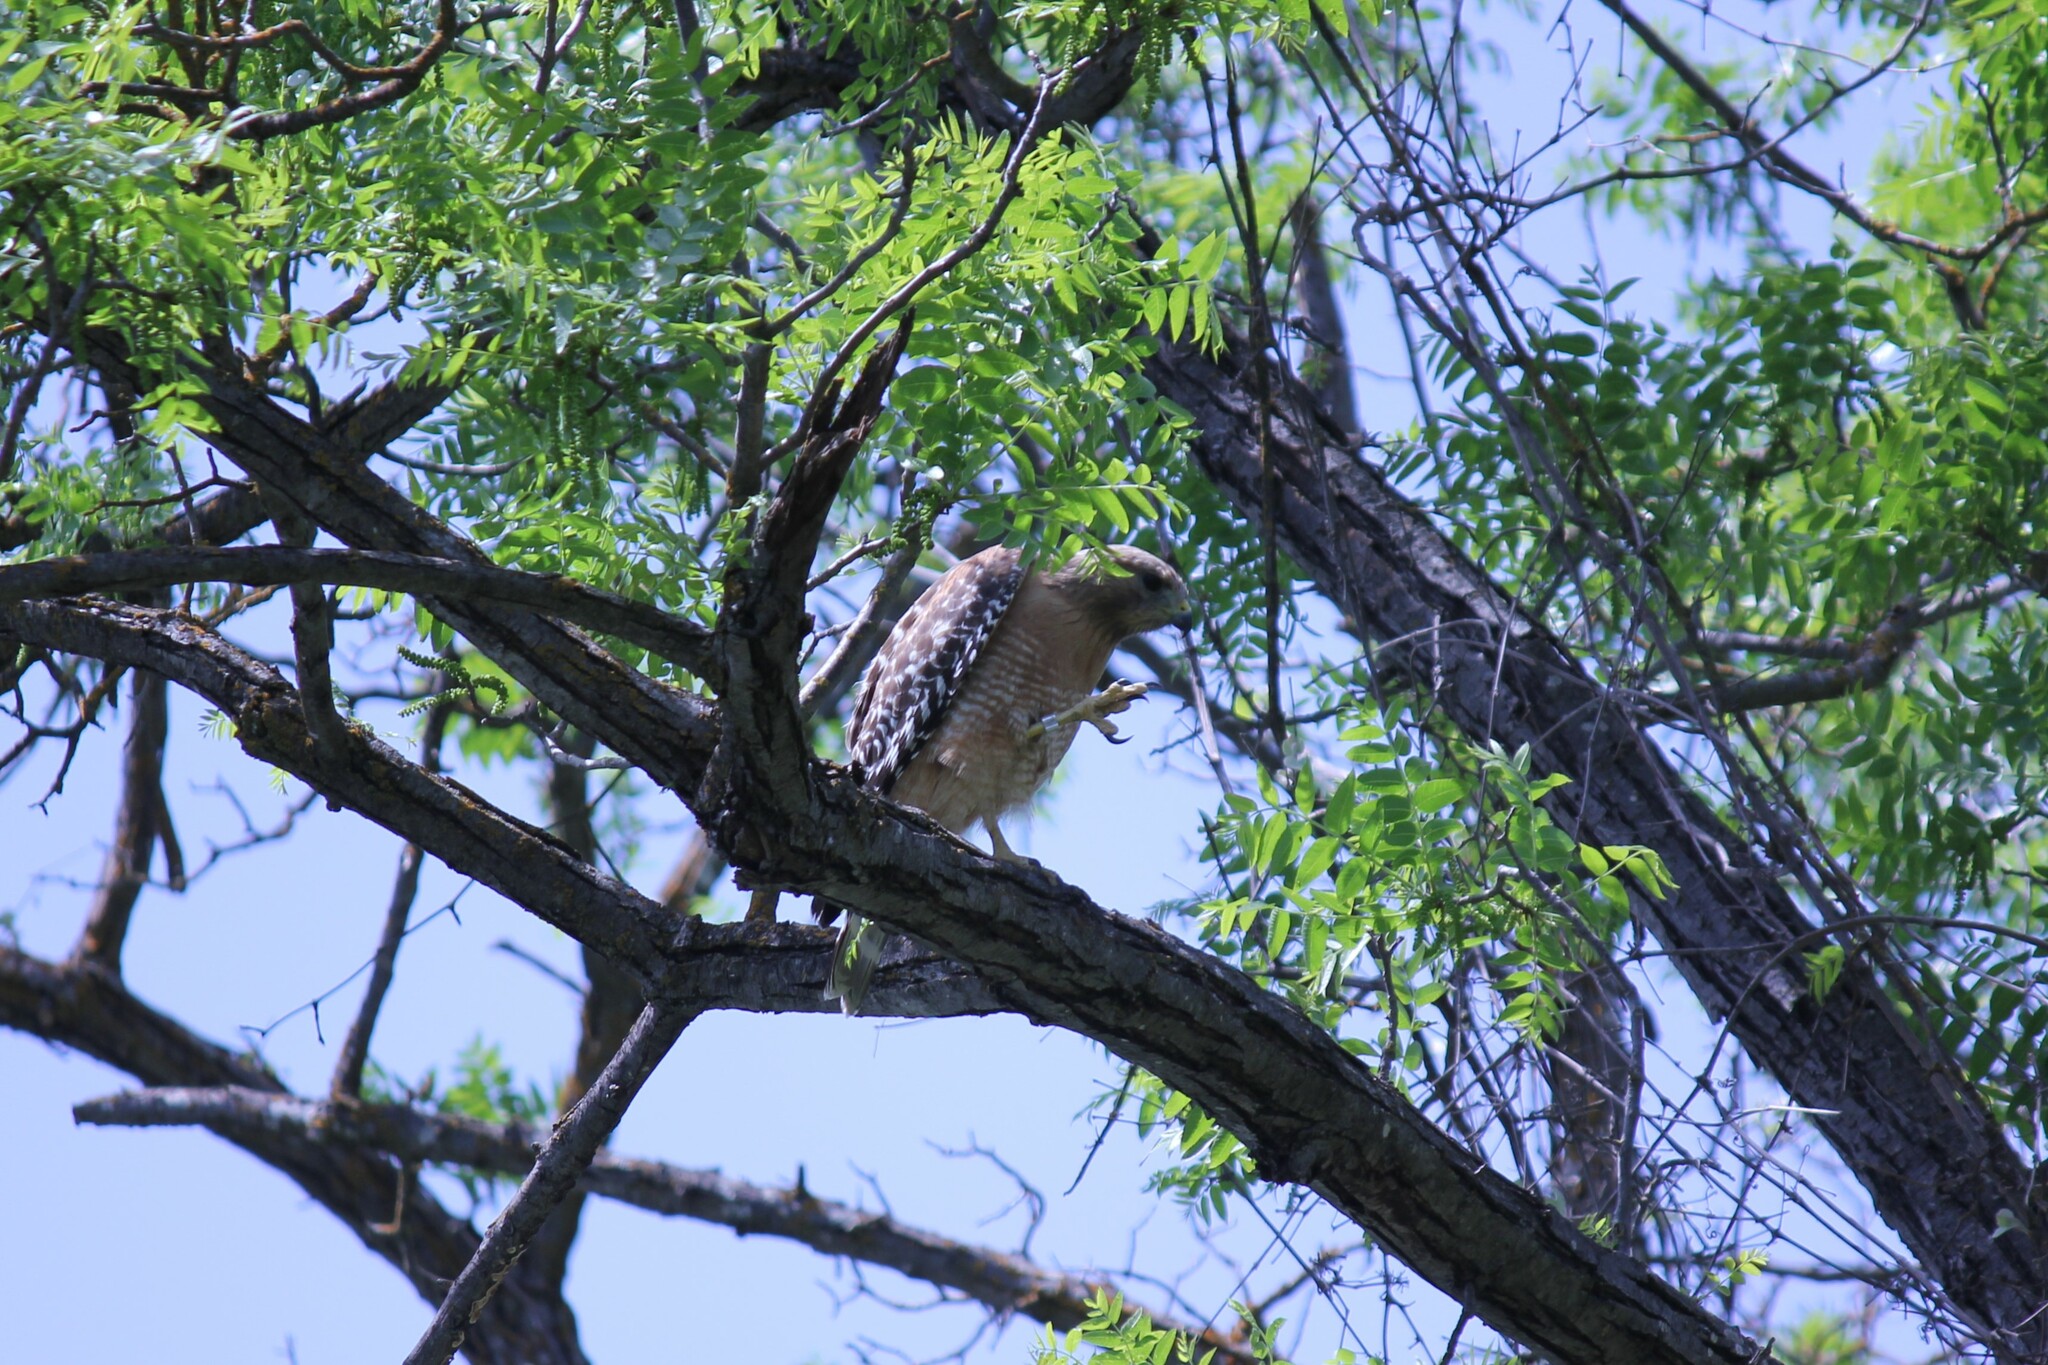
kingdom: Animalia
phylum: Chordata
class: Aves
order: Accipitriformes
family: Accipitridae
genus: Buteo
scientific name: Buteo lineatus
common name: Red-shouldered hawk
